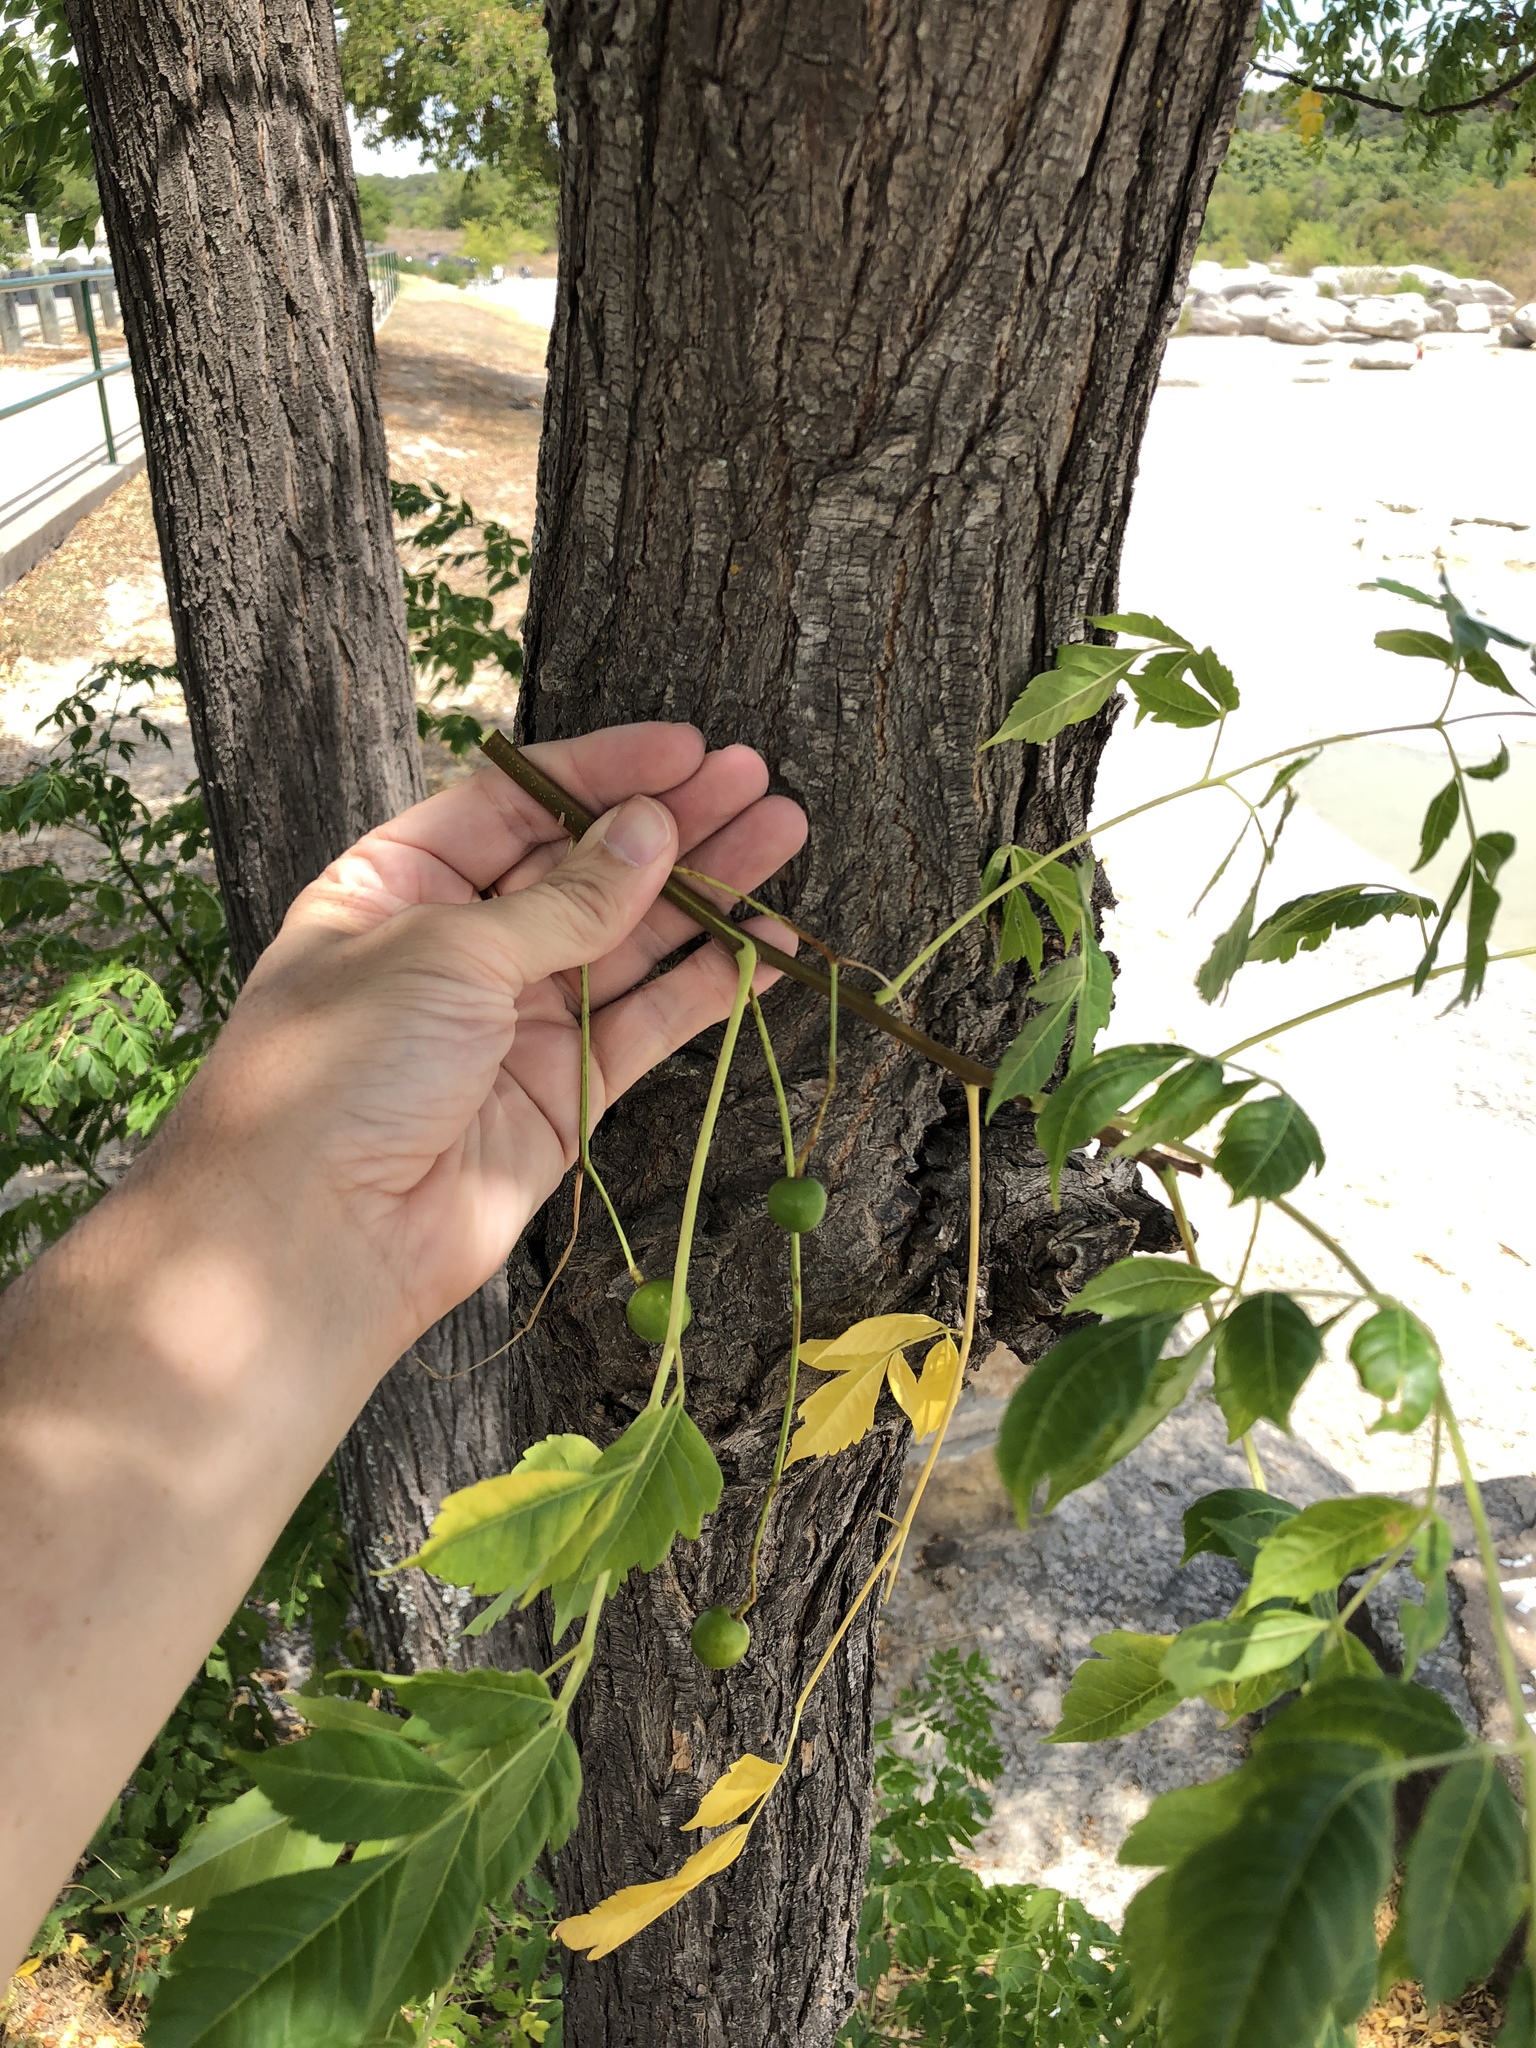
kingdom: Plantae
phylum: Tracheophyta
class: Magnoliopsida
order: Sapindales
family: Meliaceae
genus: Melia
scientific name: Melia azedarach
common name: Chinaberrytree
